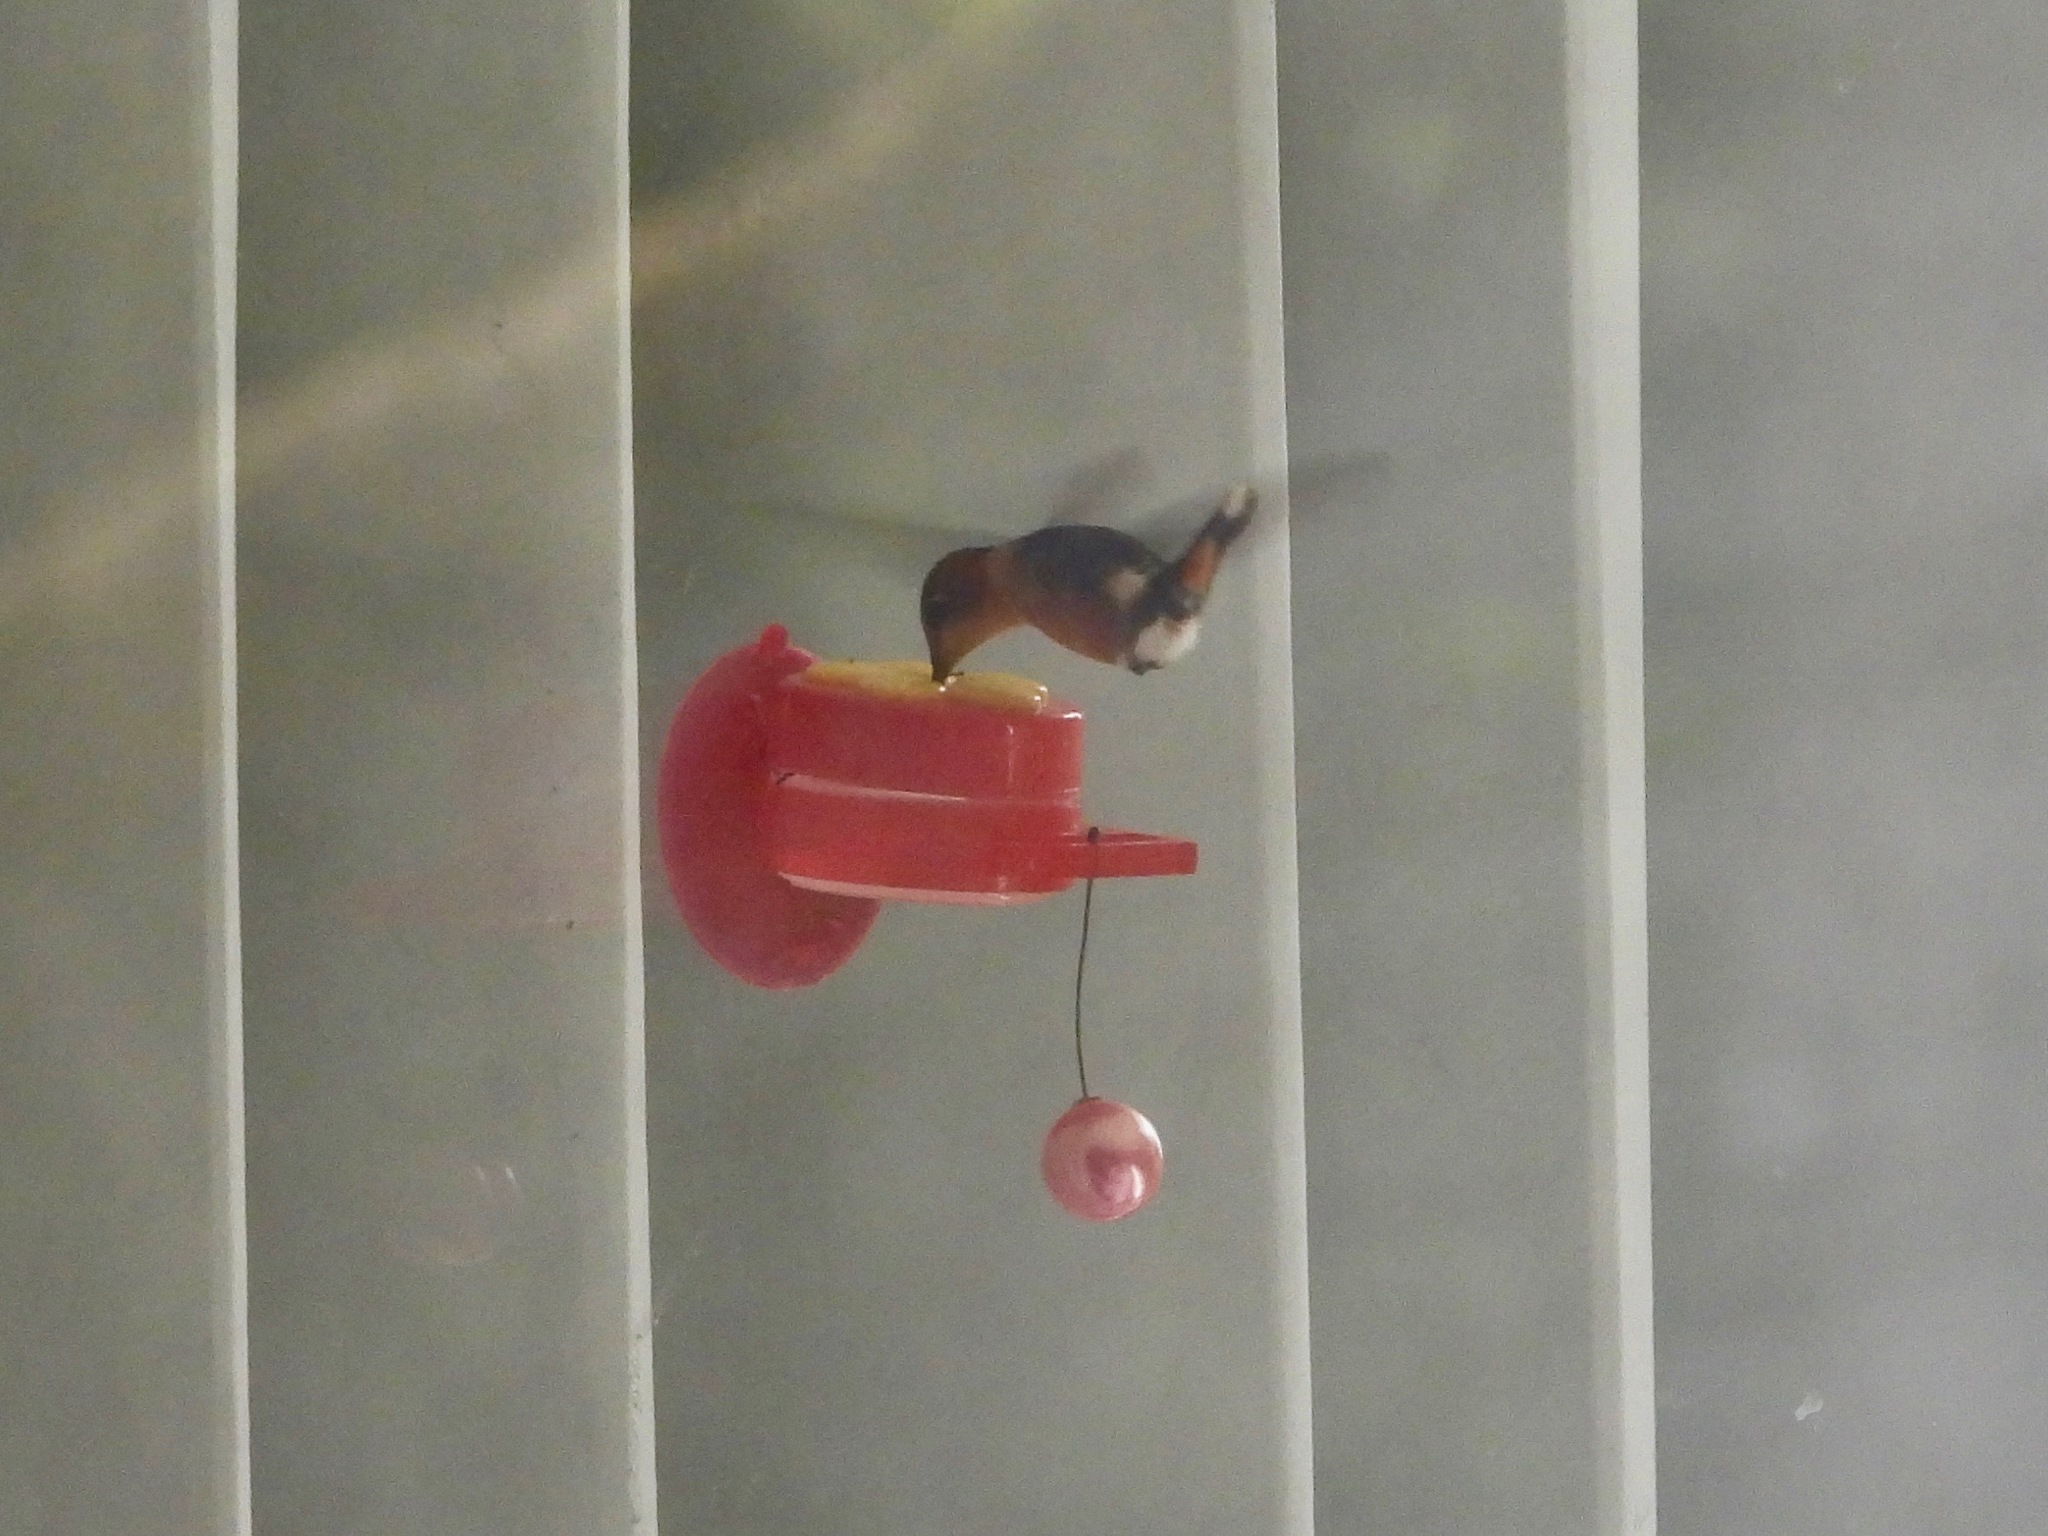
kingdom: Animalia
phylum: Chordata
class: Aves
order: Apodiformes
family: Trochilidae
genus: Tilmatura
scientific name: Tilmatura dupontii
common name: Sparkling-tailed woodstar
